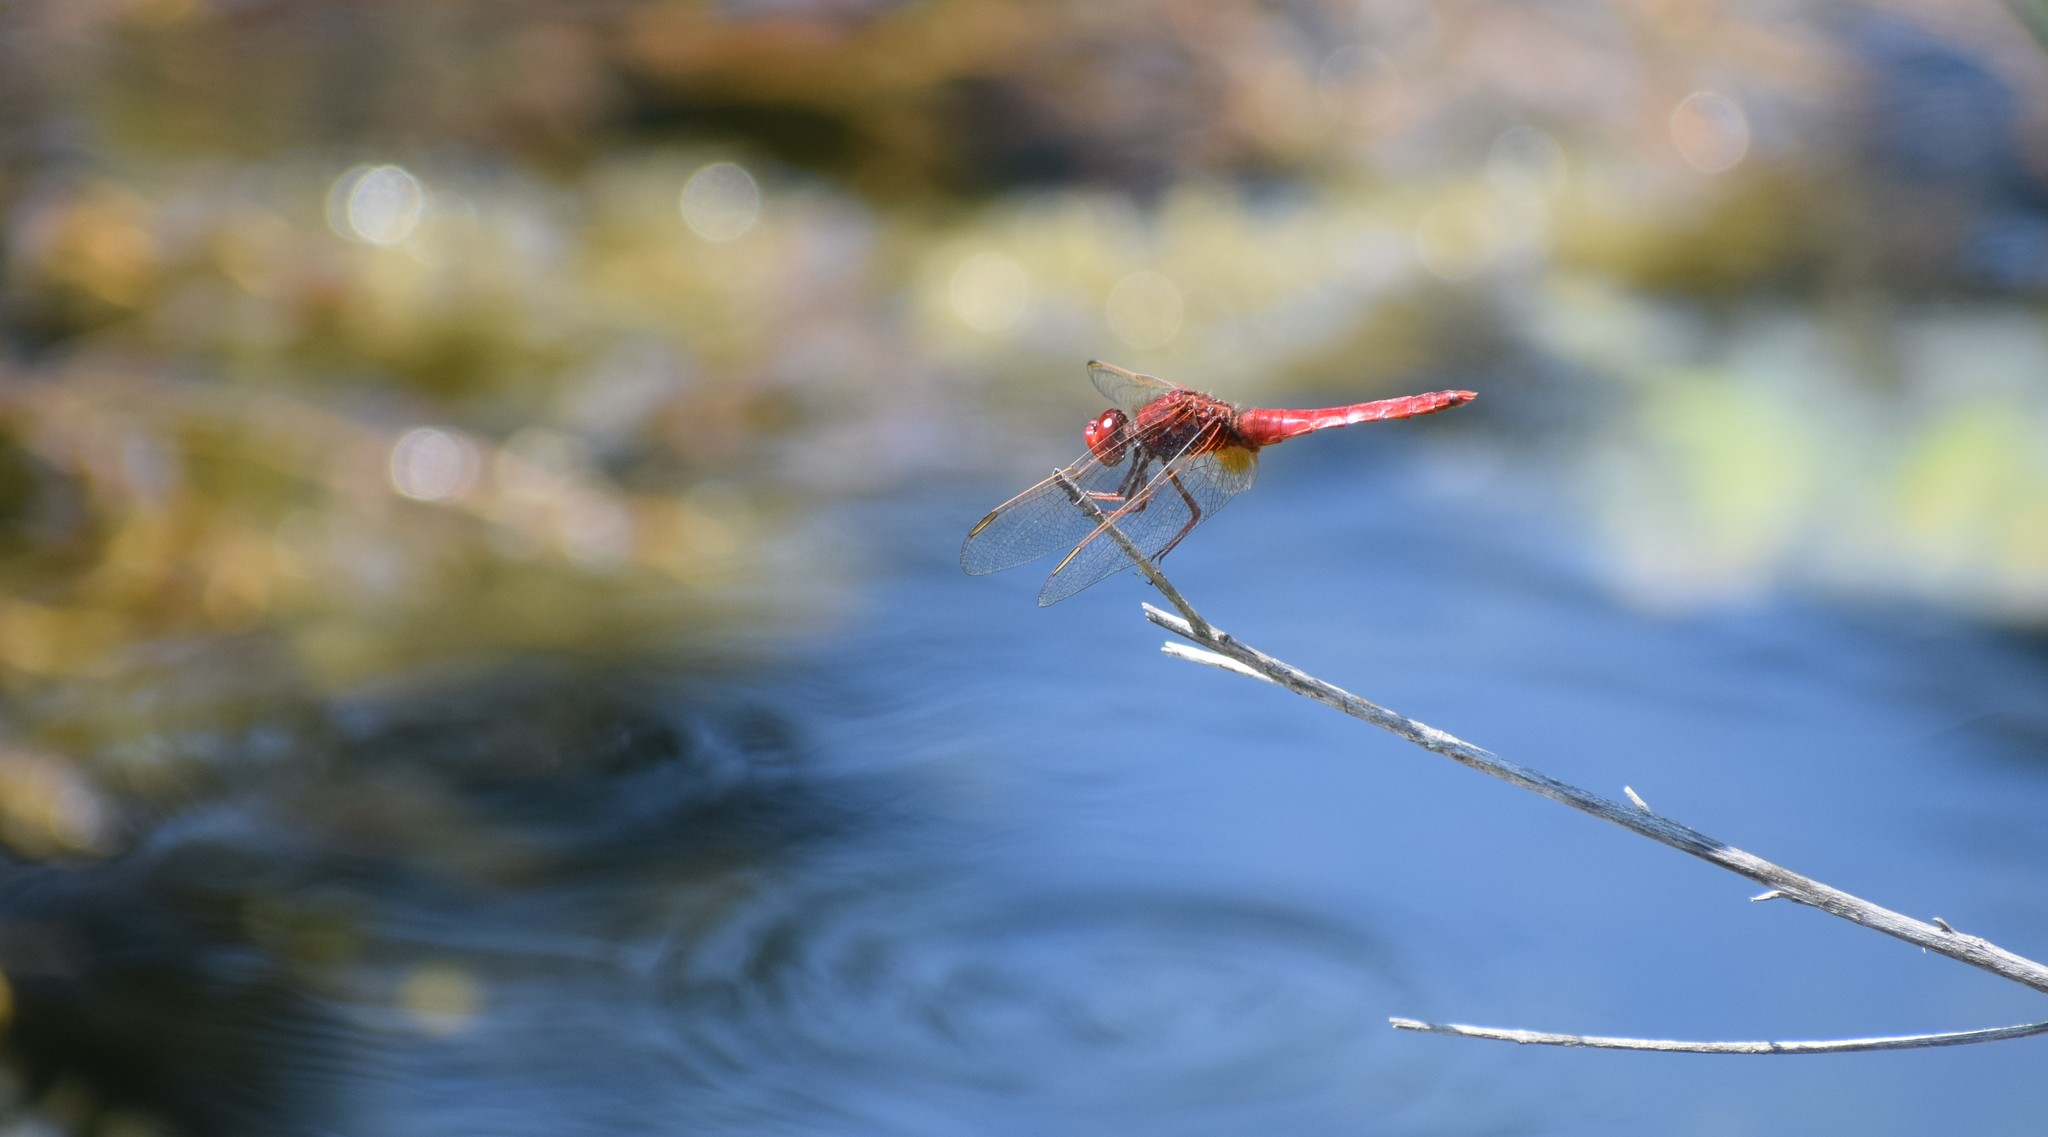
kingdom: Animalia
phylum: Arthropoda
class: Insecta
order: Odonata
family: Libellulidae
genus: Crocothemis
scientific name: Crocothemis erythraea
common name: Scarlet dragonfly
